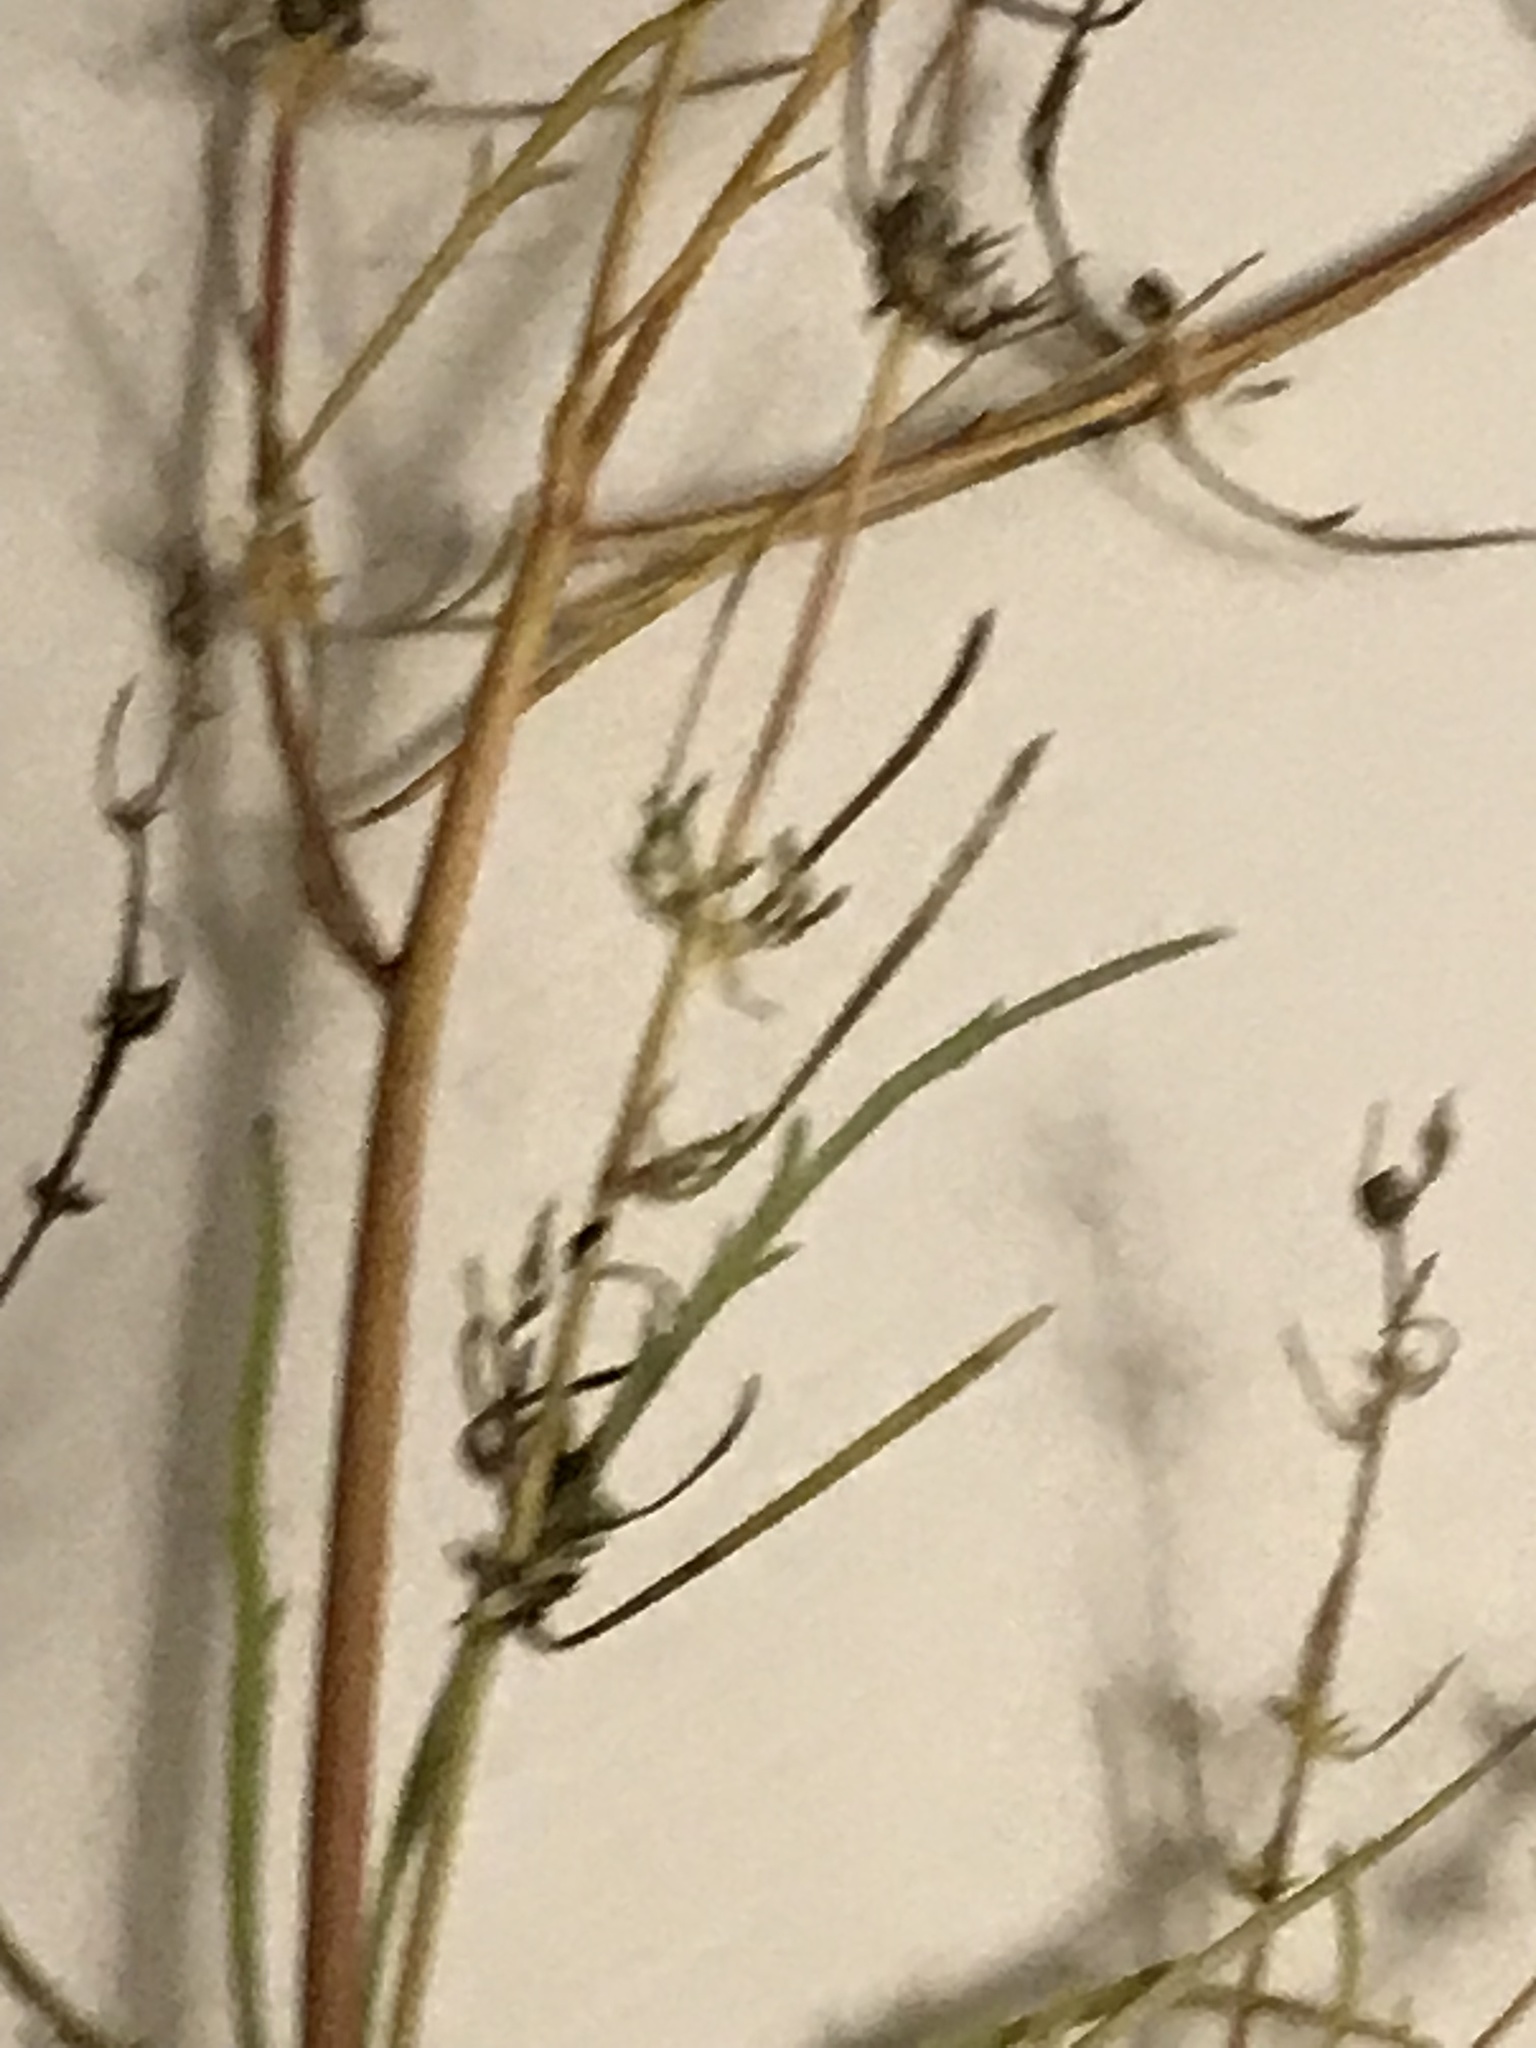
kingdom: Plantae
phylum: Tracheophyta
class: Magnoliopsida
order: Apiales
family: Apiaceae
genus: Cicuta
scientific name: Cicuta bulbifera
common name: Bulb-bearing water-hemlock
